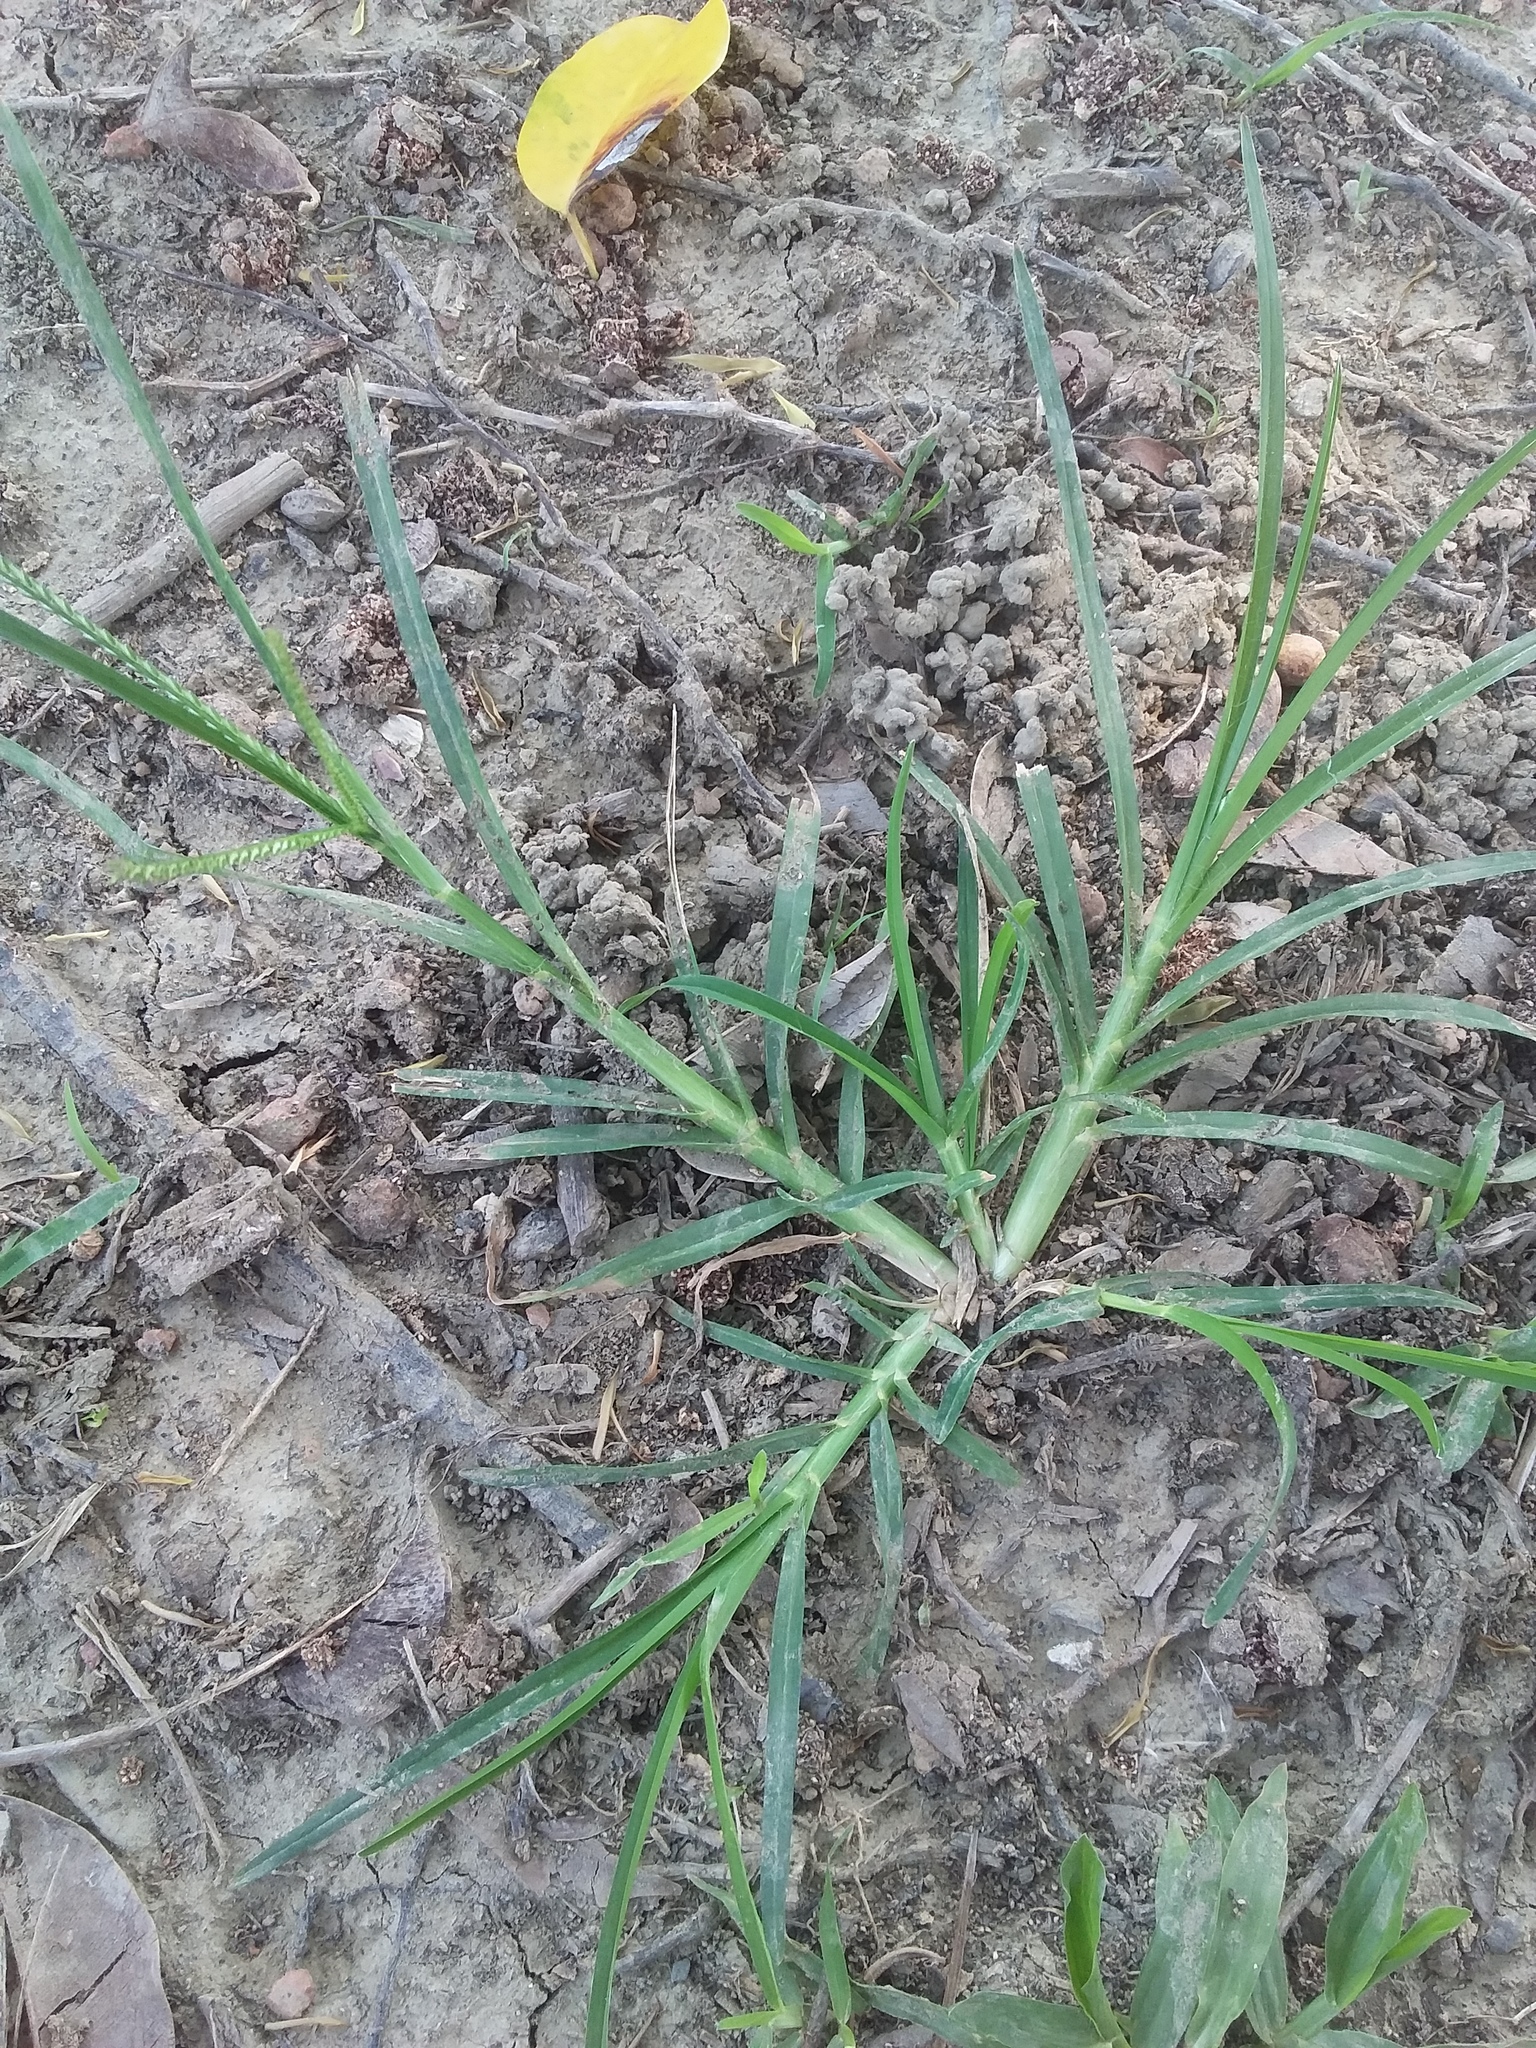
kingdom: Plantae
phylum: Tracheophyta
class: Liliopsida
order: Poales
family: Poaceae
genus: Eleusine
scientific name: Eleusine indica
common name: Yard-grass
